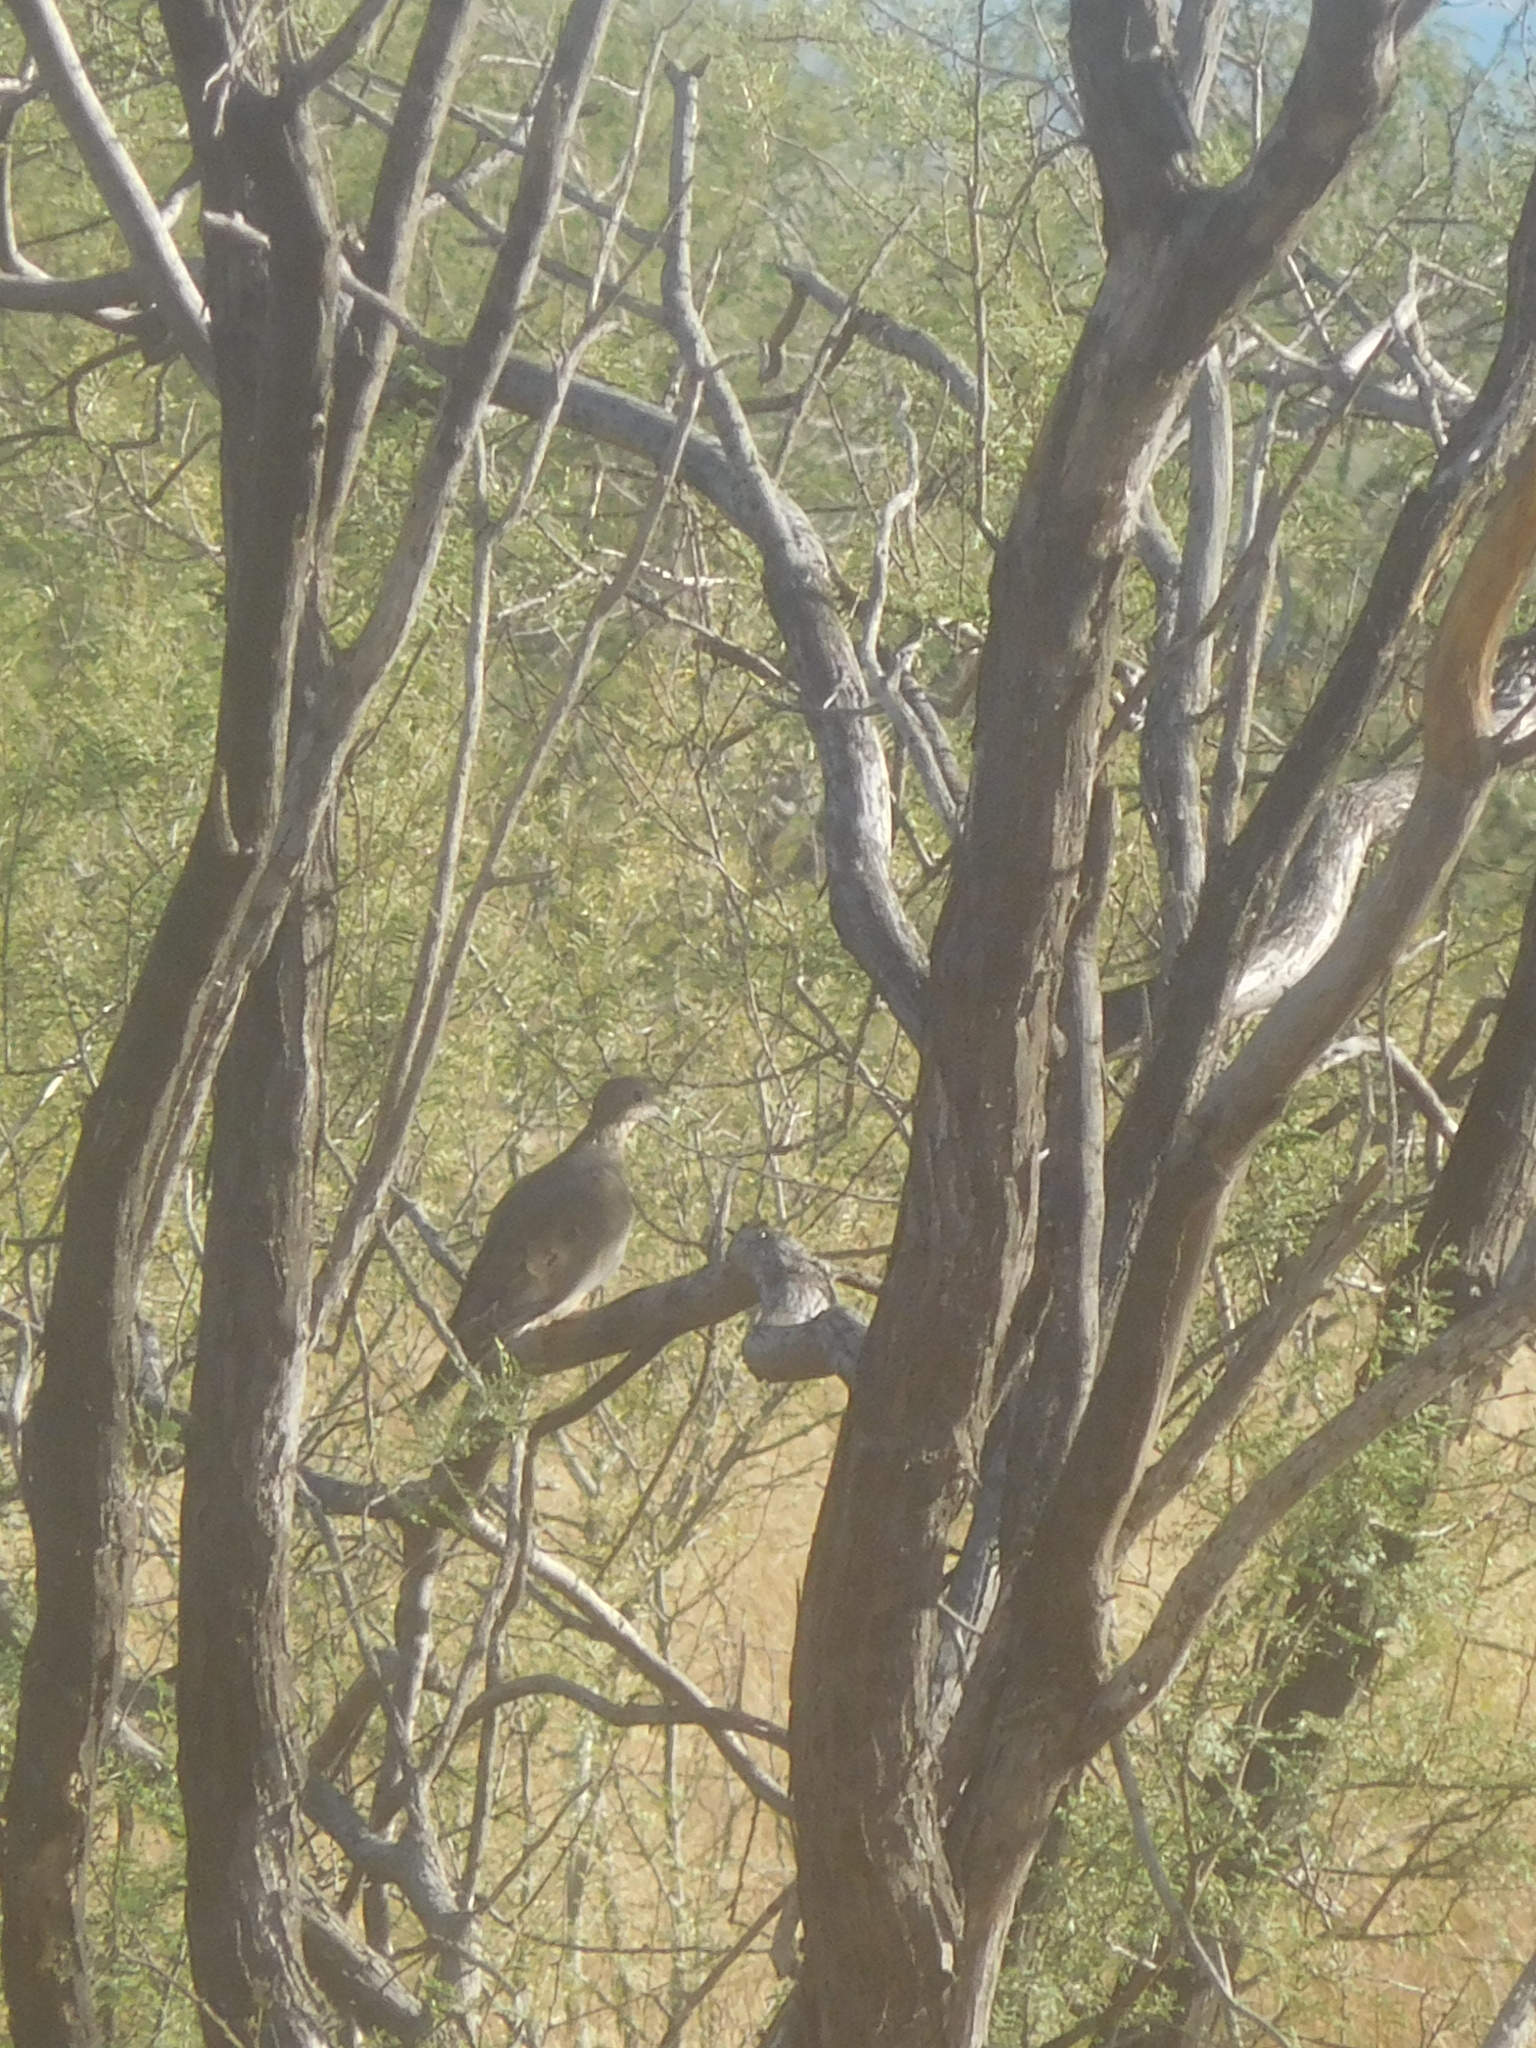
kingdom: Animalia
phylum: Chordata
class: Aves
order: Columbiformes
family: Columbidae
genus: Zenaida
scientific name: Zenaida macroura
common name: Mourning dove
